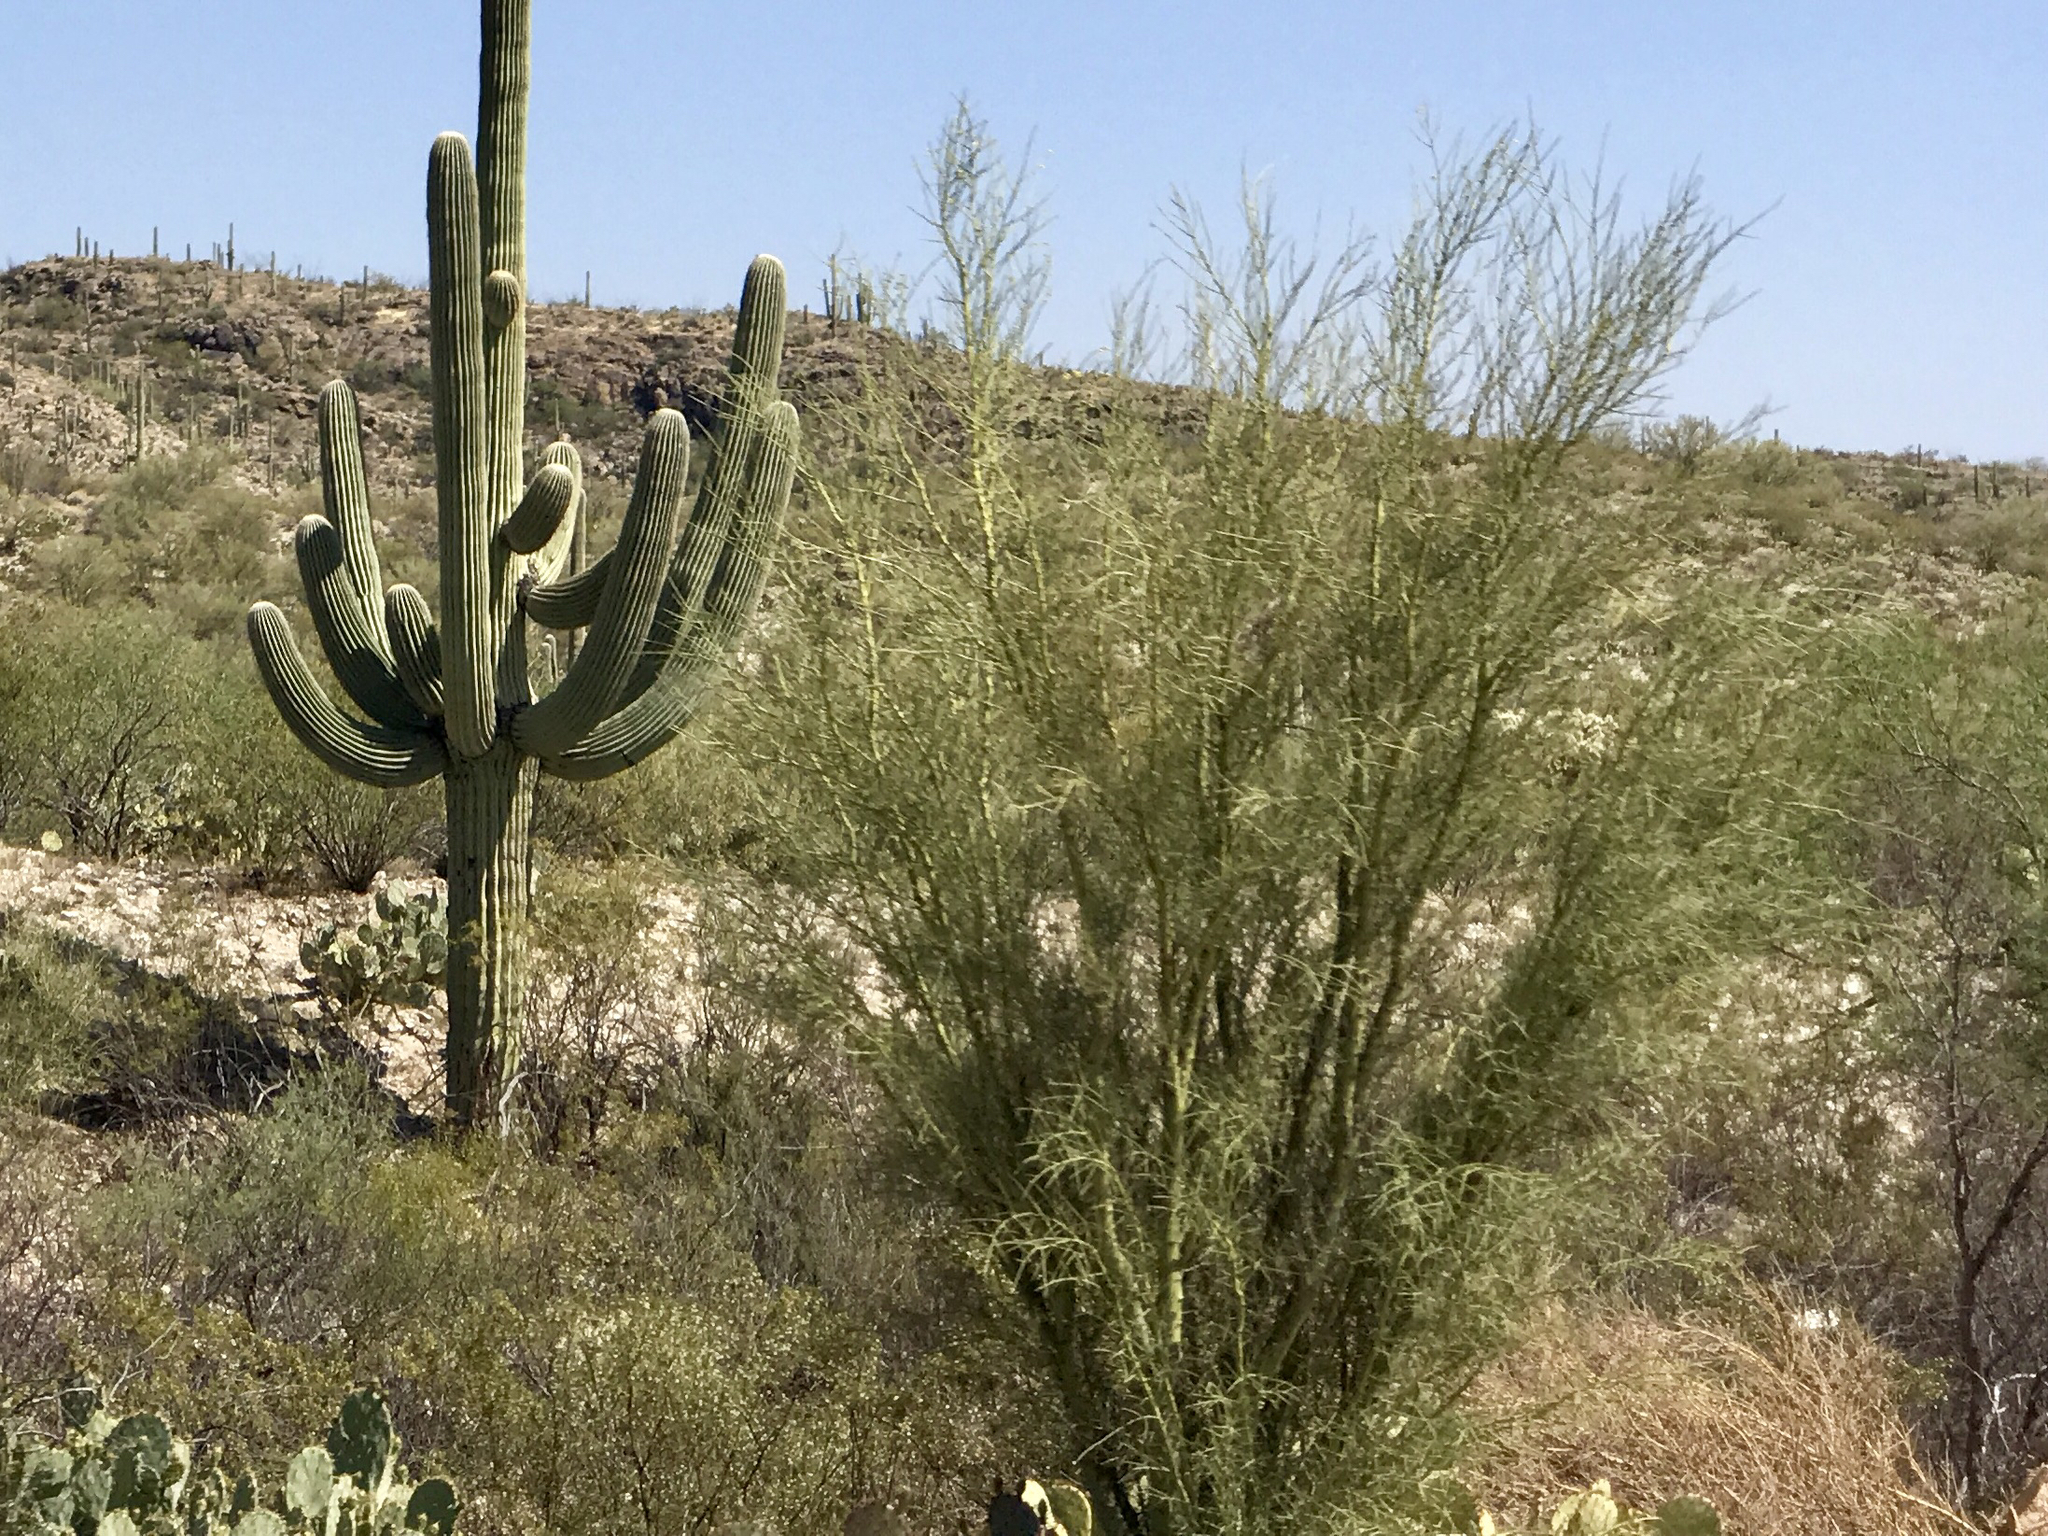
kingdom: Plantae
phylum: Tracheophyta
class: Magnoliopsida
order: Fabales
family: Fabaceae
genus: Parkinsonia
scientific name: Parkinsonia microphylla
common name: Yellow paloverde
